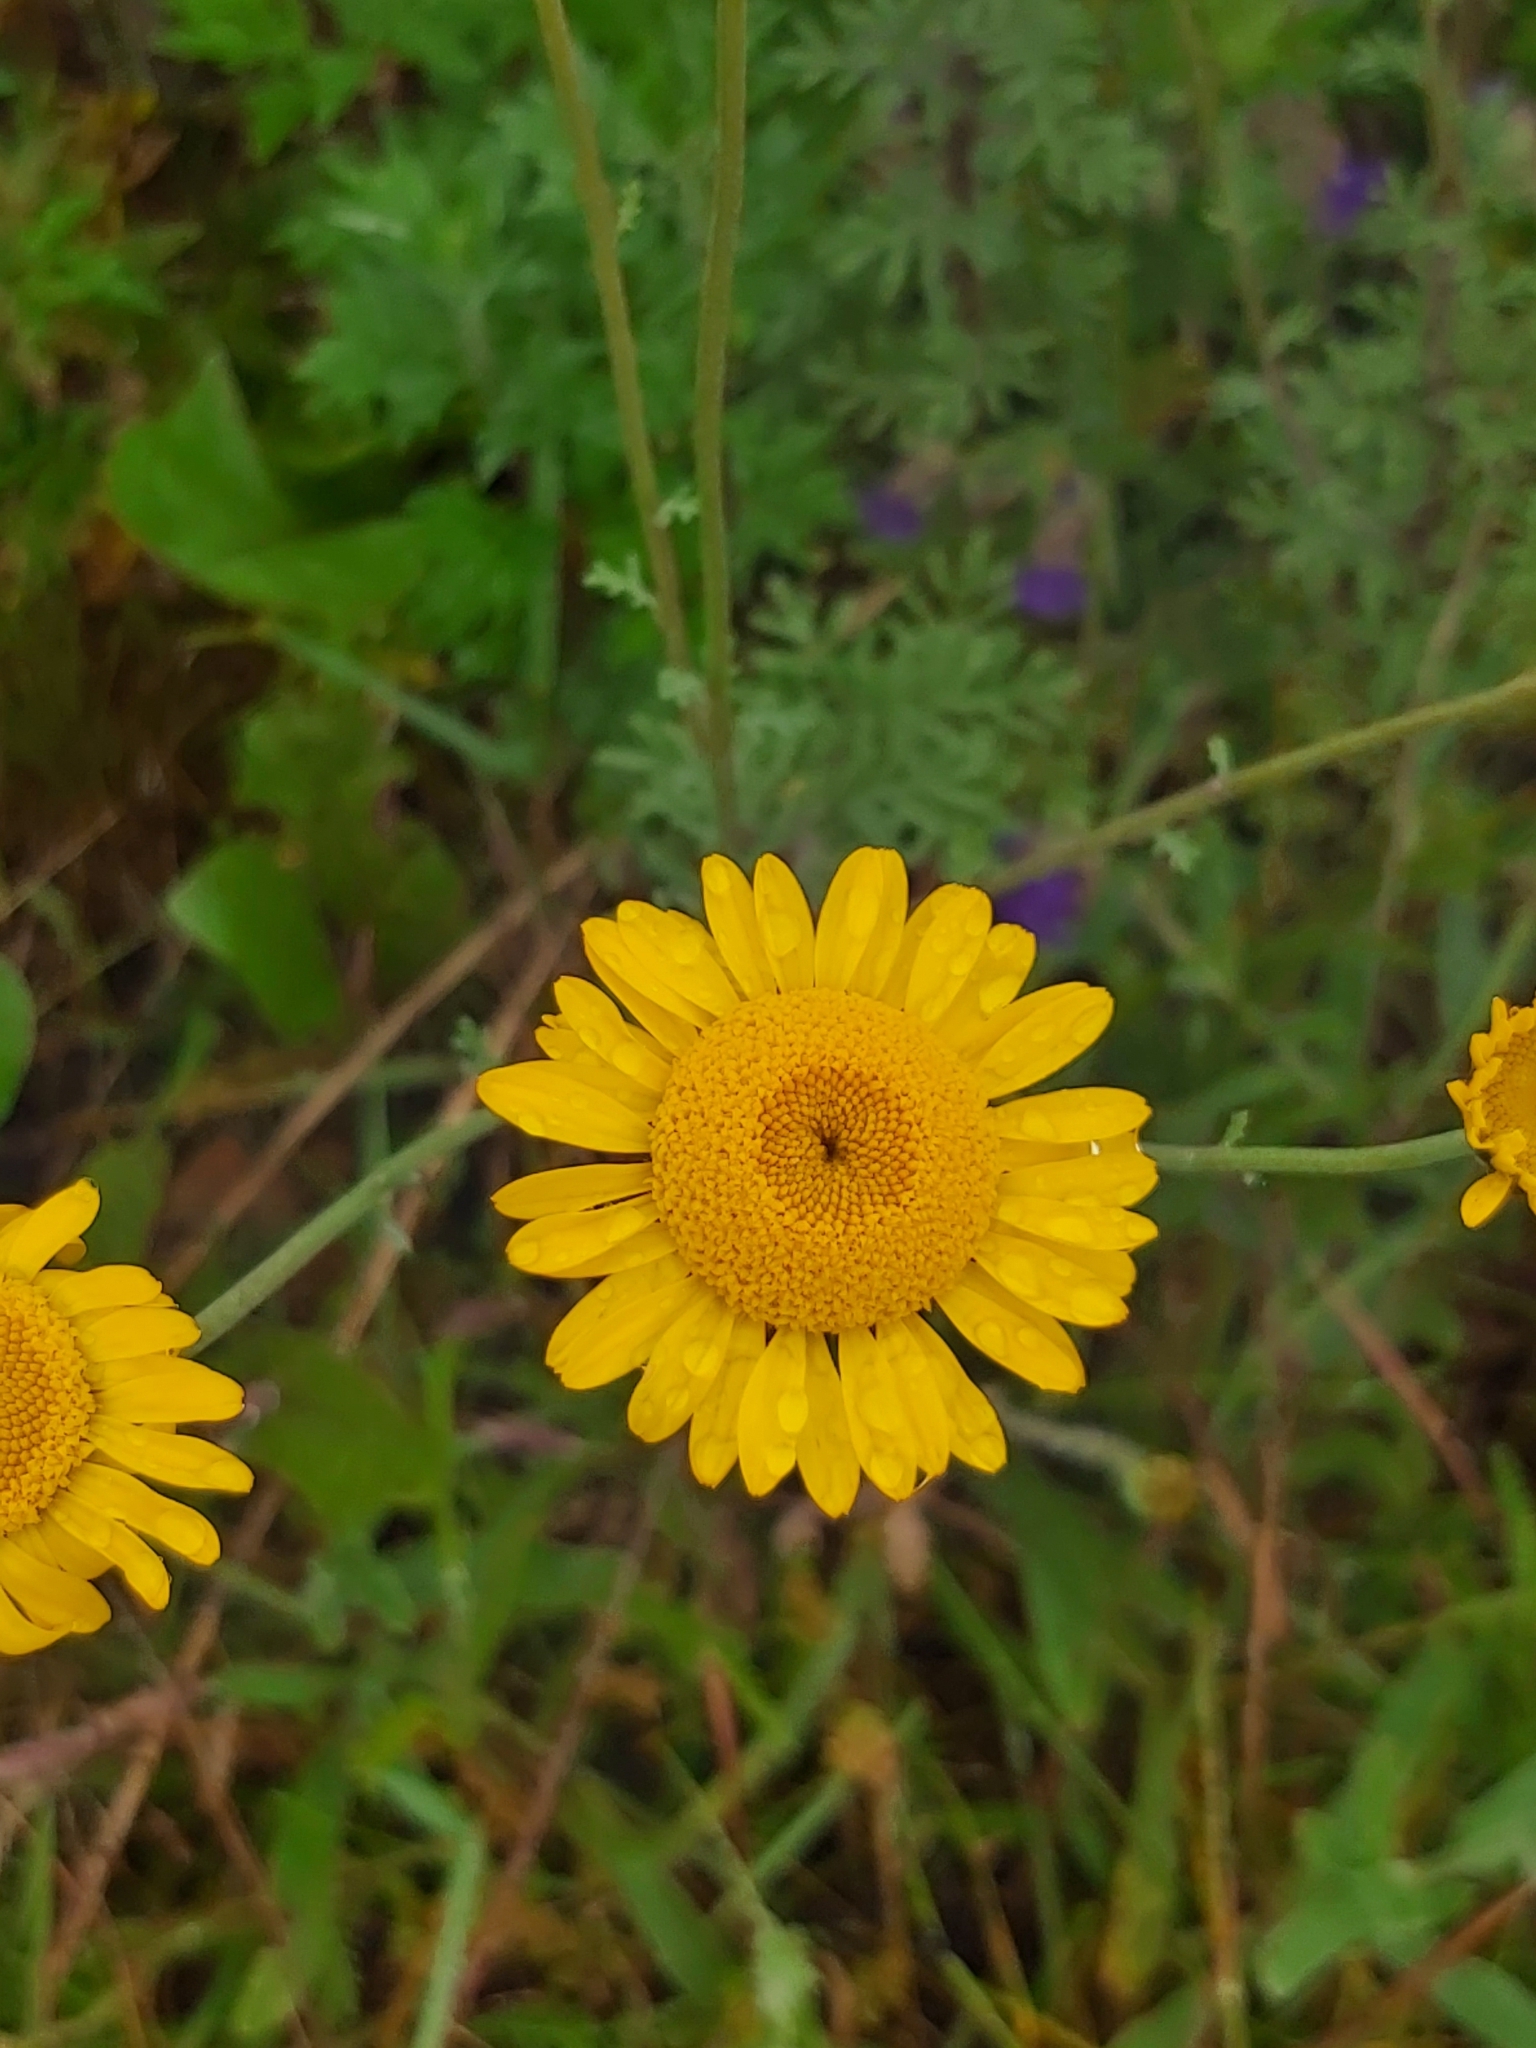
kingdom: Plantae
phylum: Tracheophyta
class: Magnoliopsida
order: Asterales
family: Asteraceae
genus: Cota
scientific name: Cota tinctoria
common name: Golden chamomile
